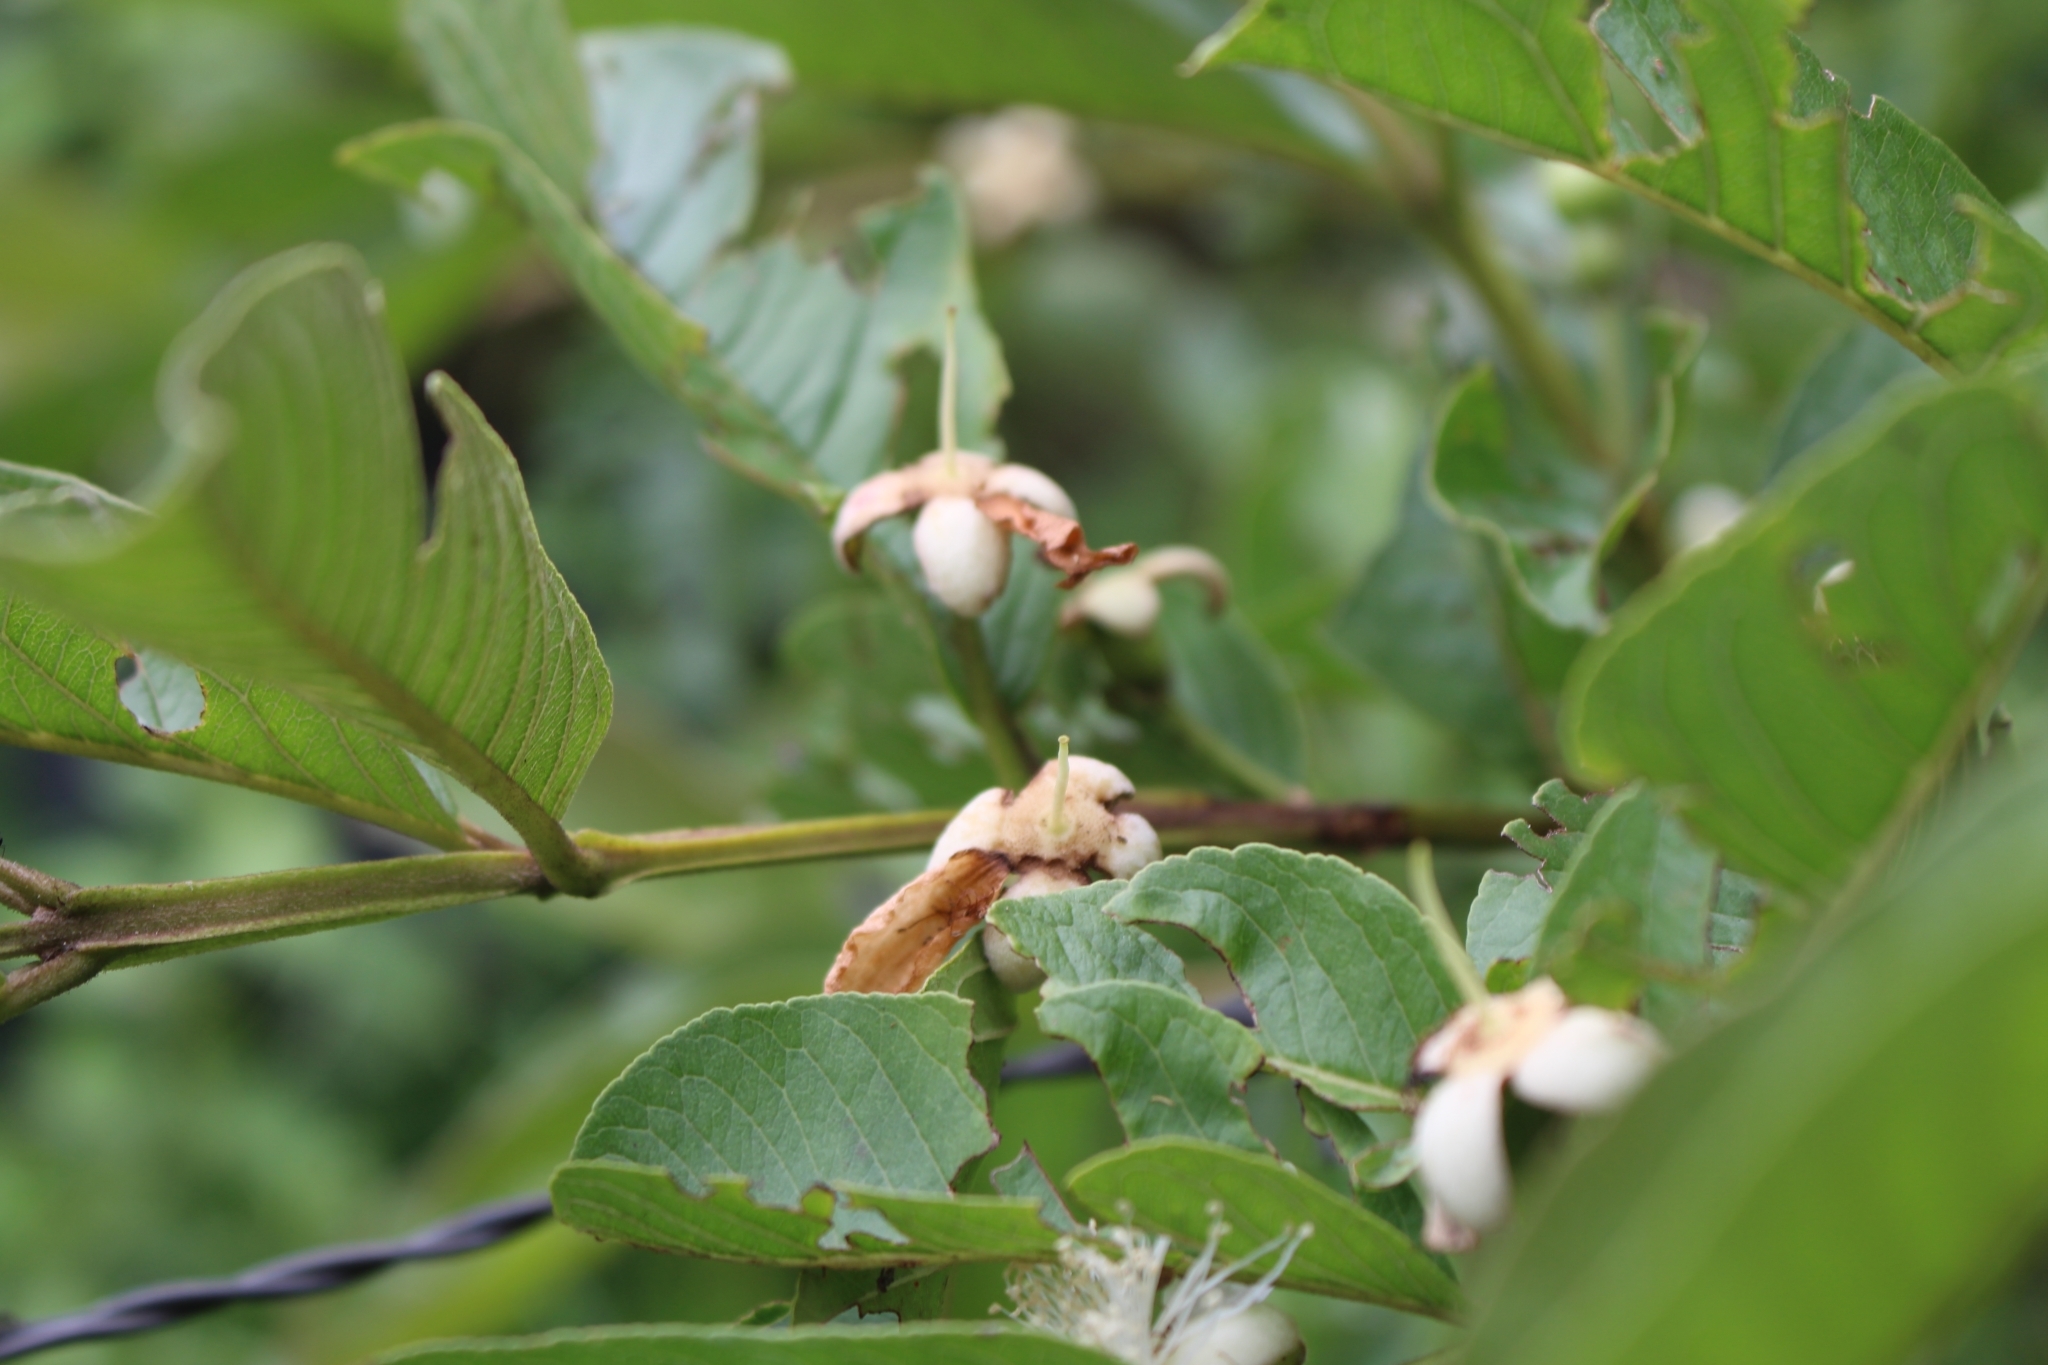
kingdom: Plantae
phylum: Tracheophyta
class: Magnoliopsida
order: Myrtales
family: Myrtaceae
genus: Psidium
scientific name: Psidium guajava
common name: Guava
